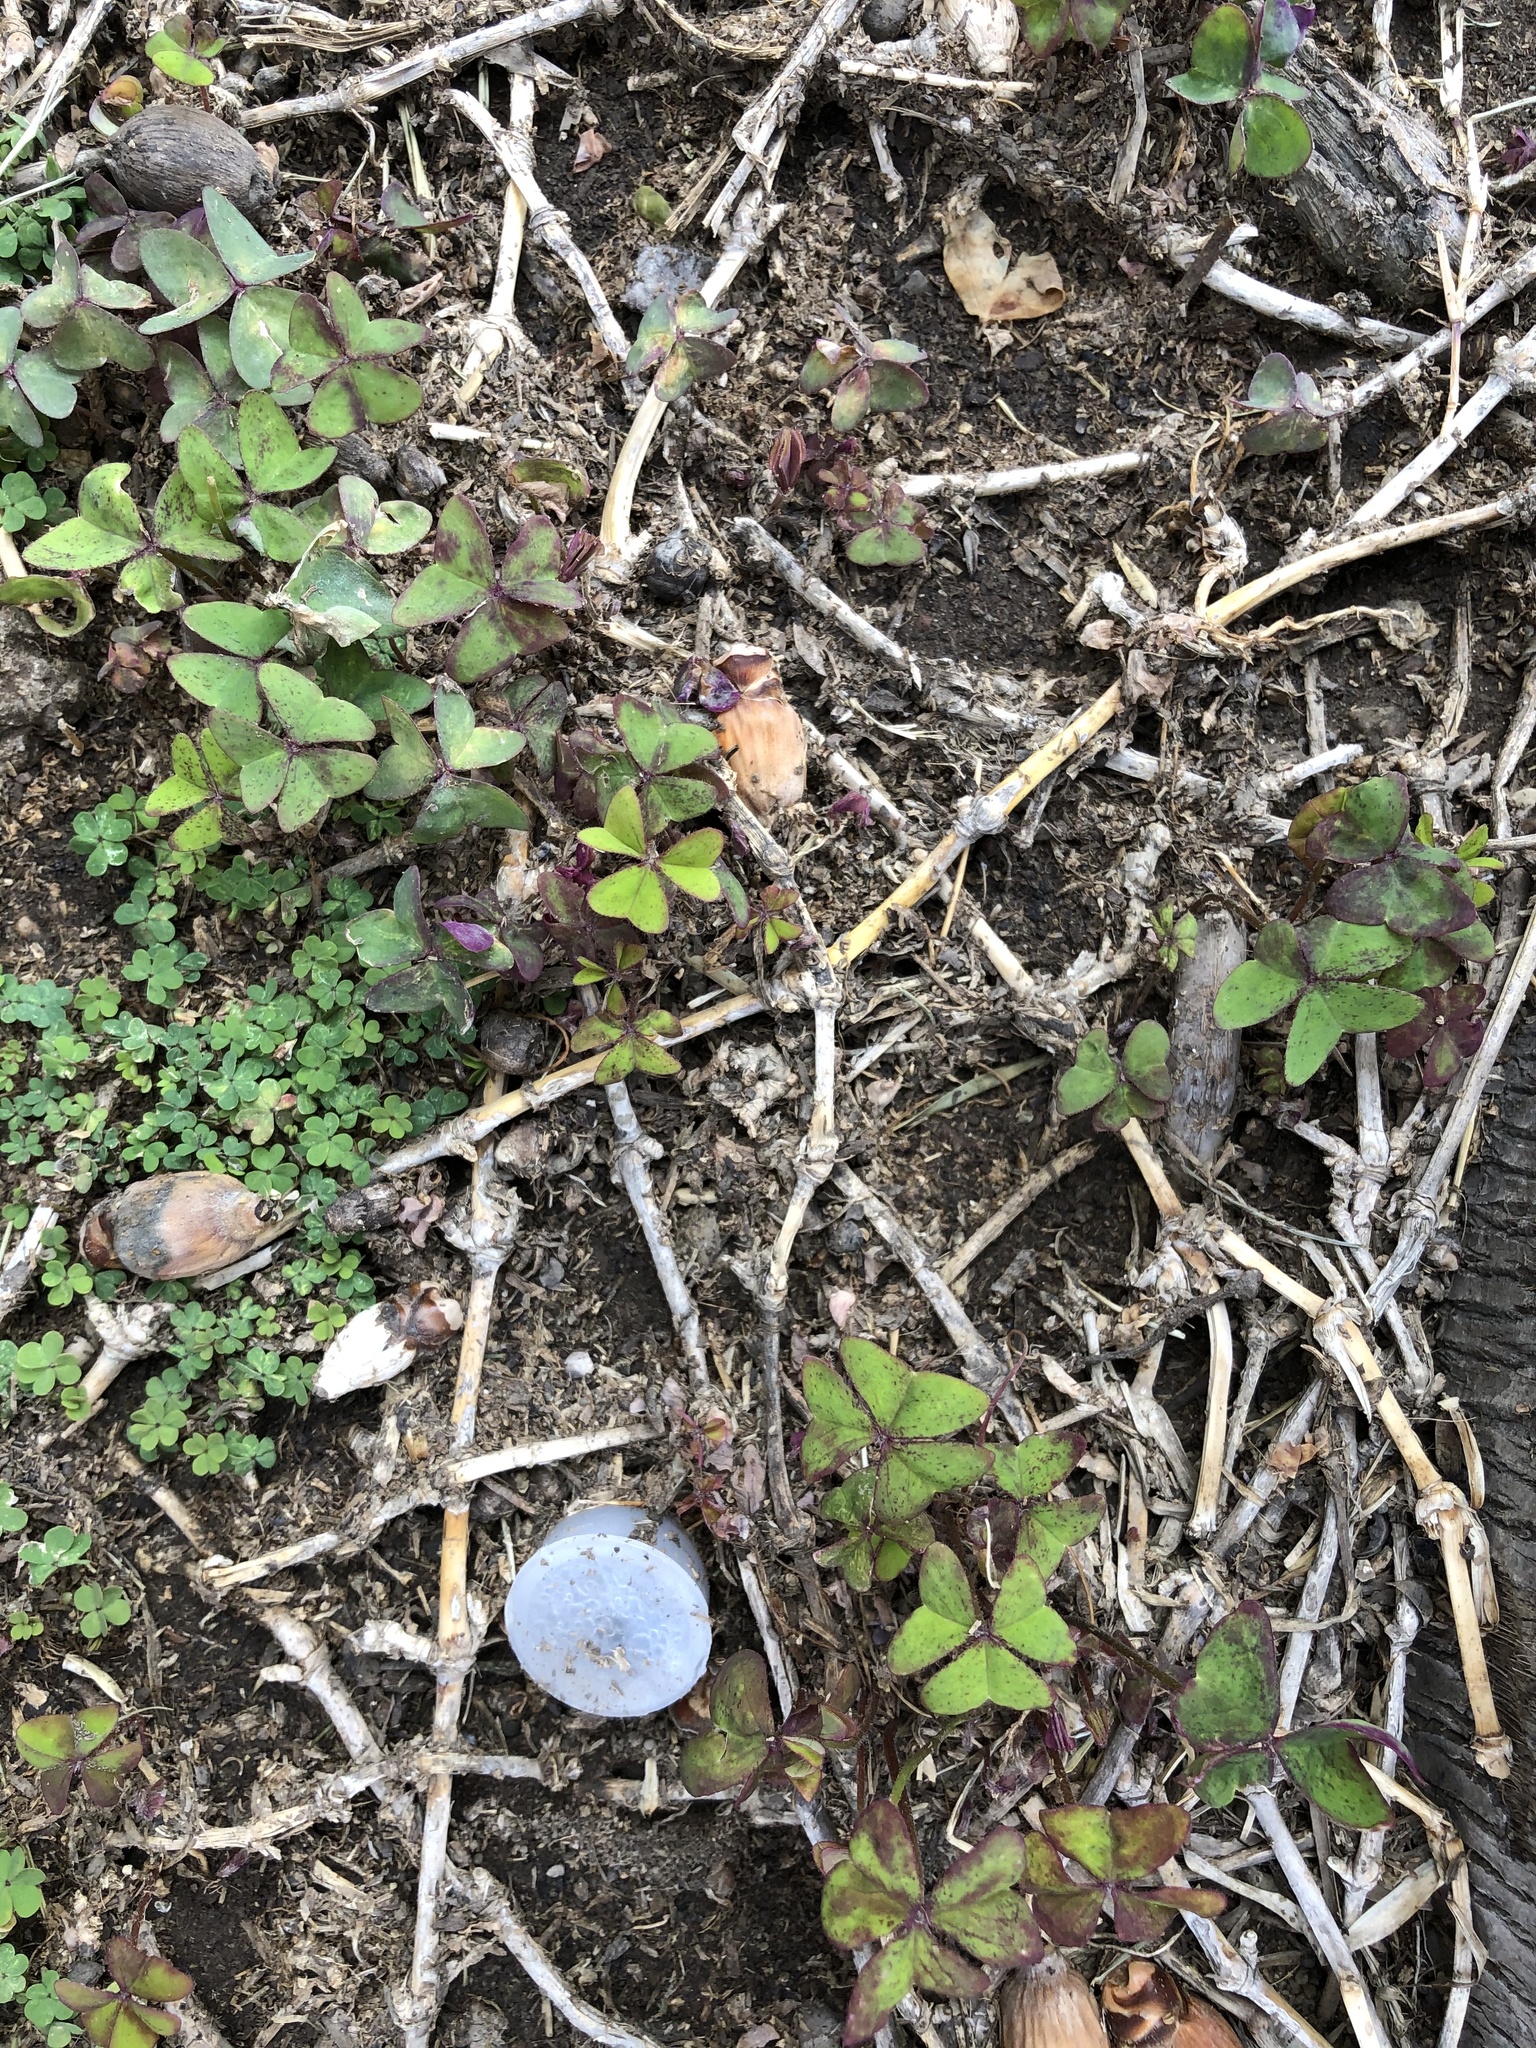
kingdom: Plantae
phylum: Tracheophyta
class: Magnoliopsida
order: Oxalidales
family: Oxalidaceae
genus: Oxalis
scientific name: Oxalis latifolia
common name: Garden pink-sorrel
